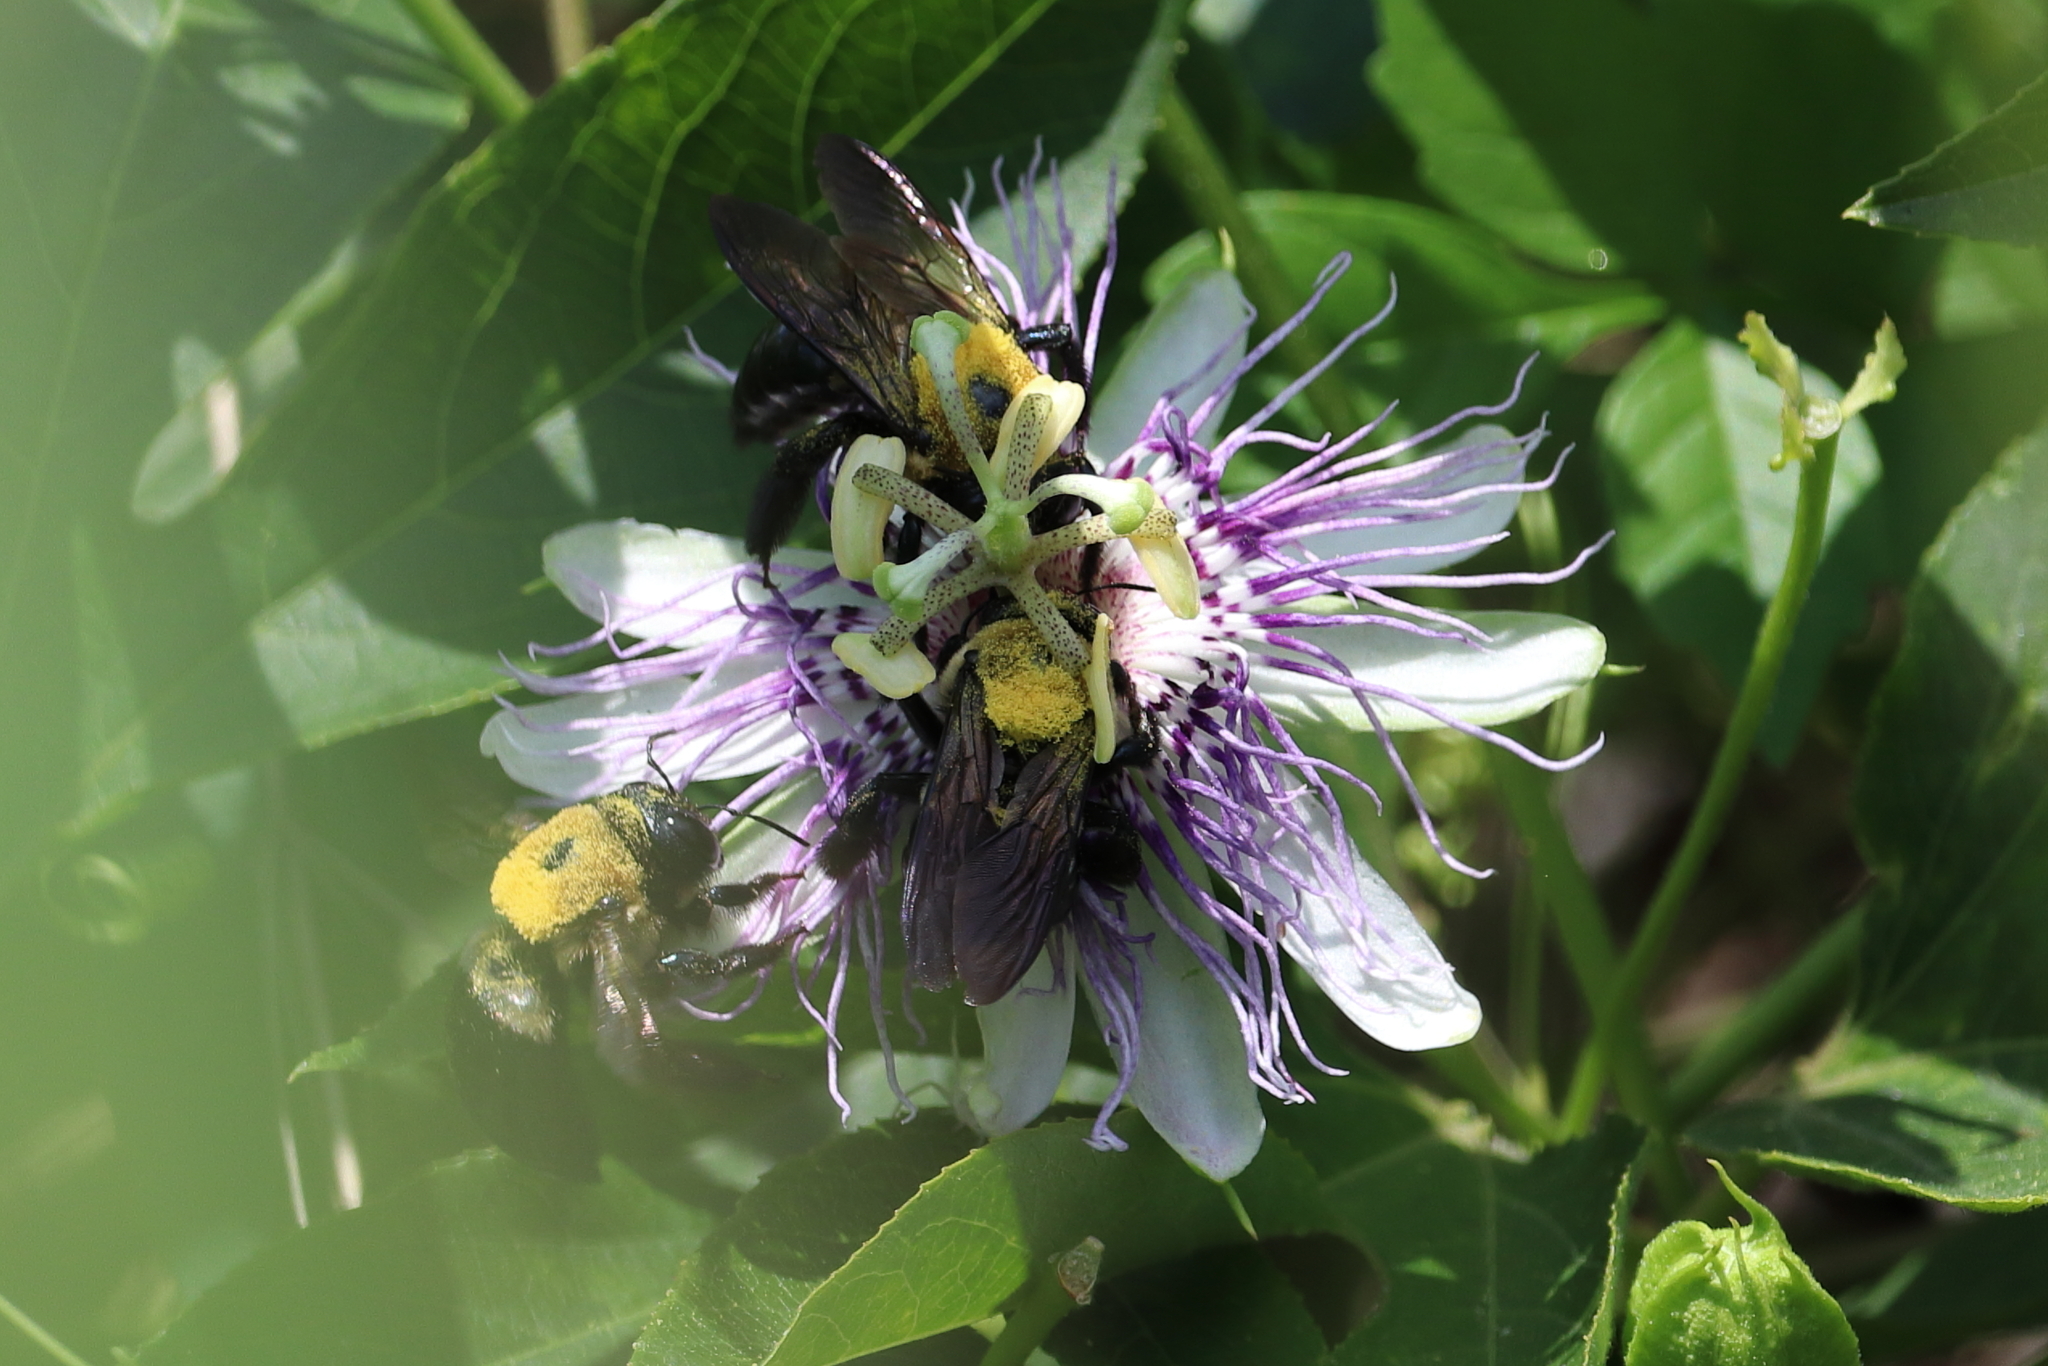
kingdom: Animalia
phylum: Arthropoda
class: Insecta
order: Hymenoptera
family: Apidae
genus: Xylocopa
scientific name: Xylocopa virginica
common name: Carpenter bee
